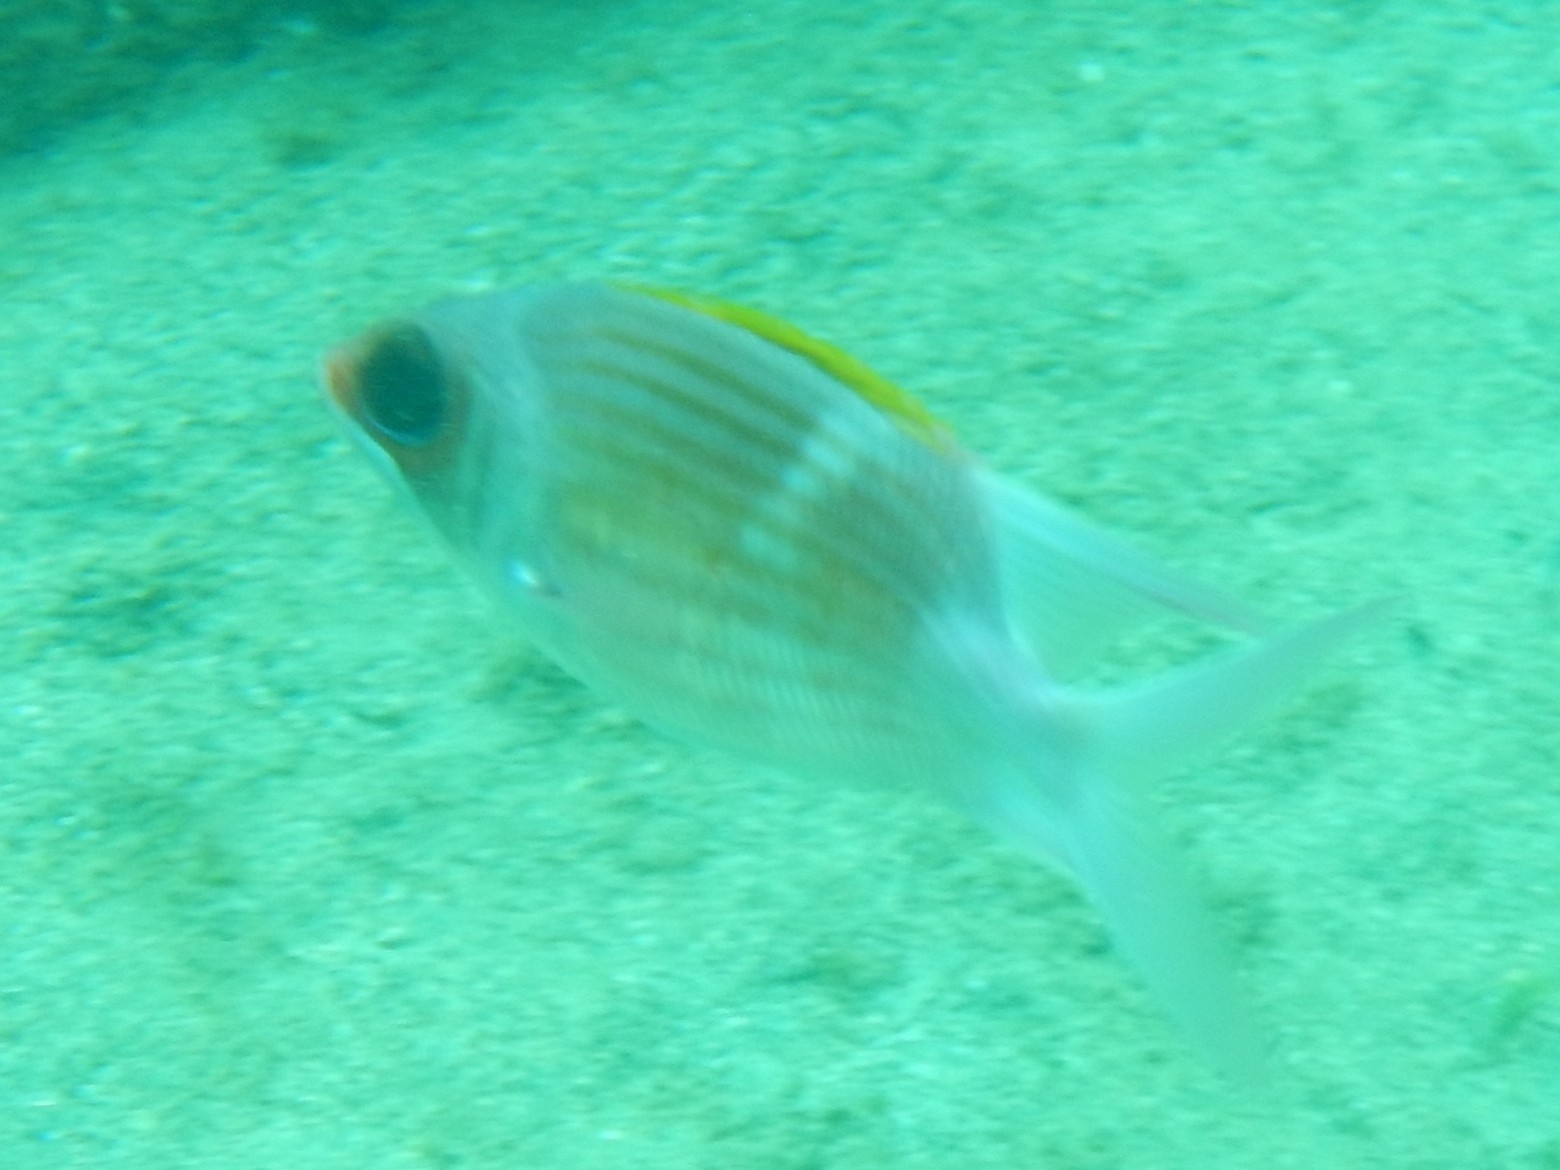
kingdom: Animalia
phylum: Chordata
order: Beryciformes
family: Holocentridae
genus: Holocentrus
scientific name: Holocentrus adscensionis
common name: Squirrelfish
